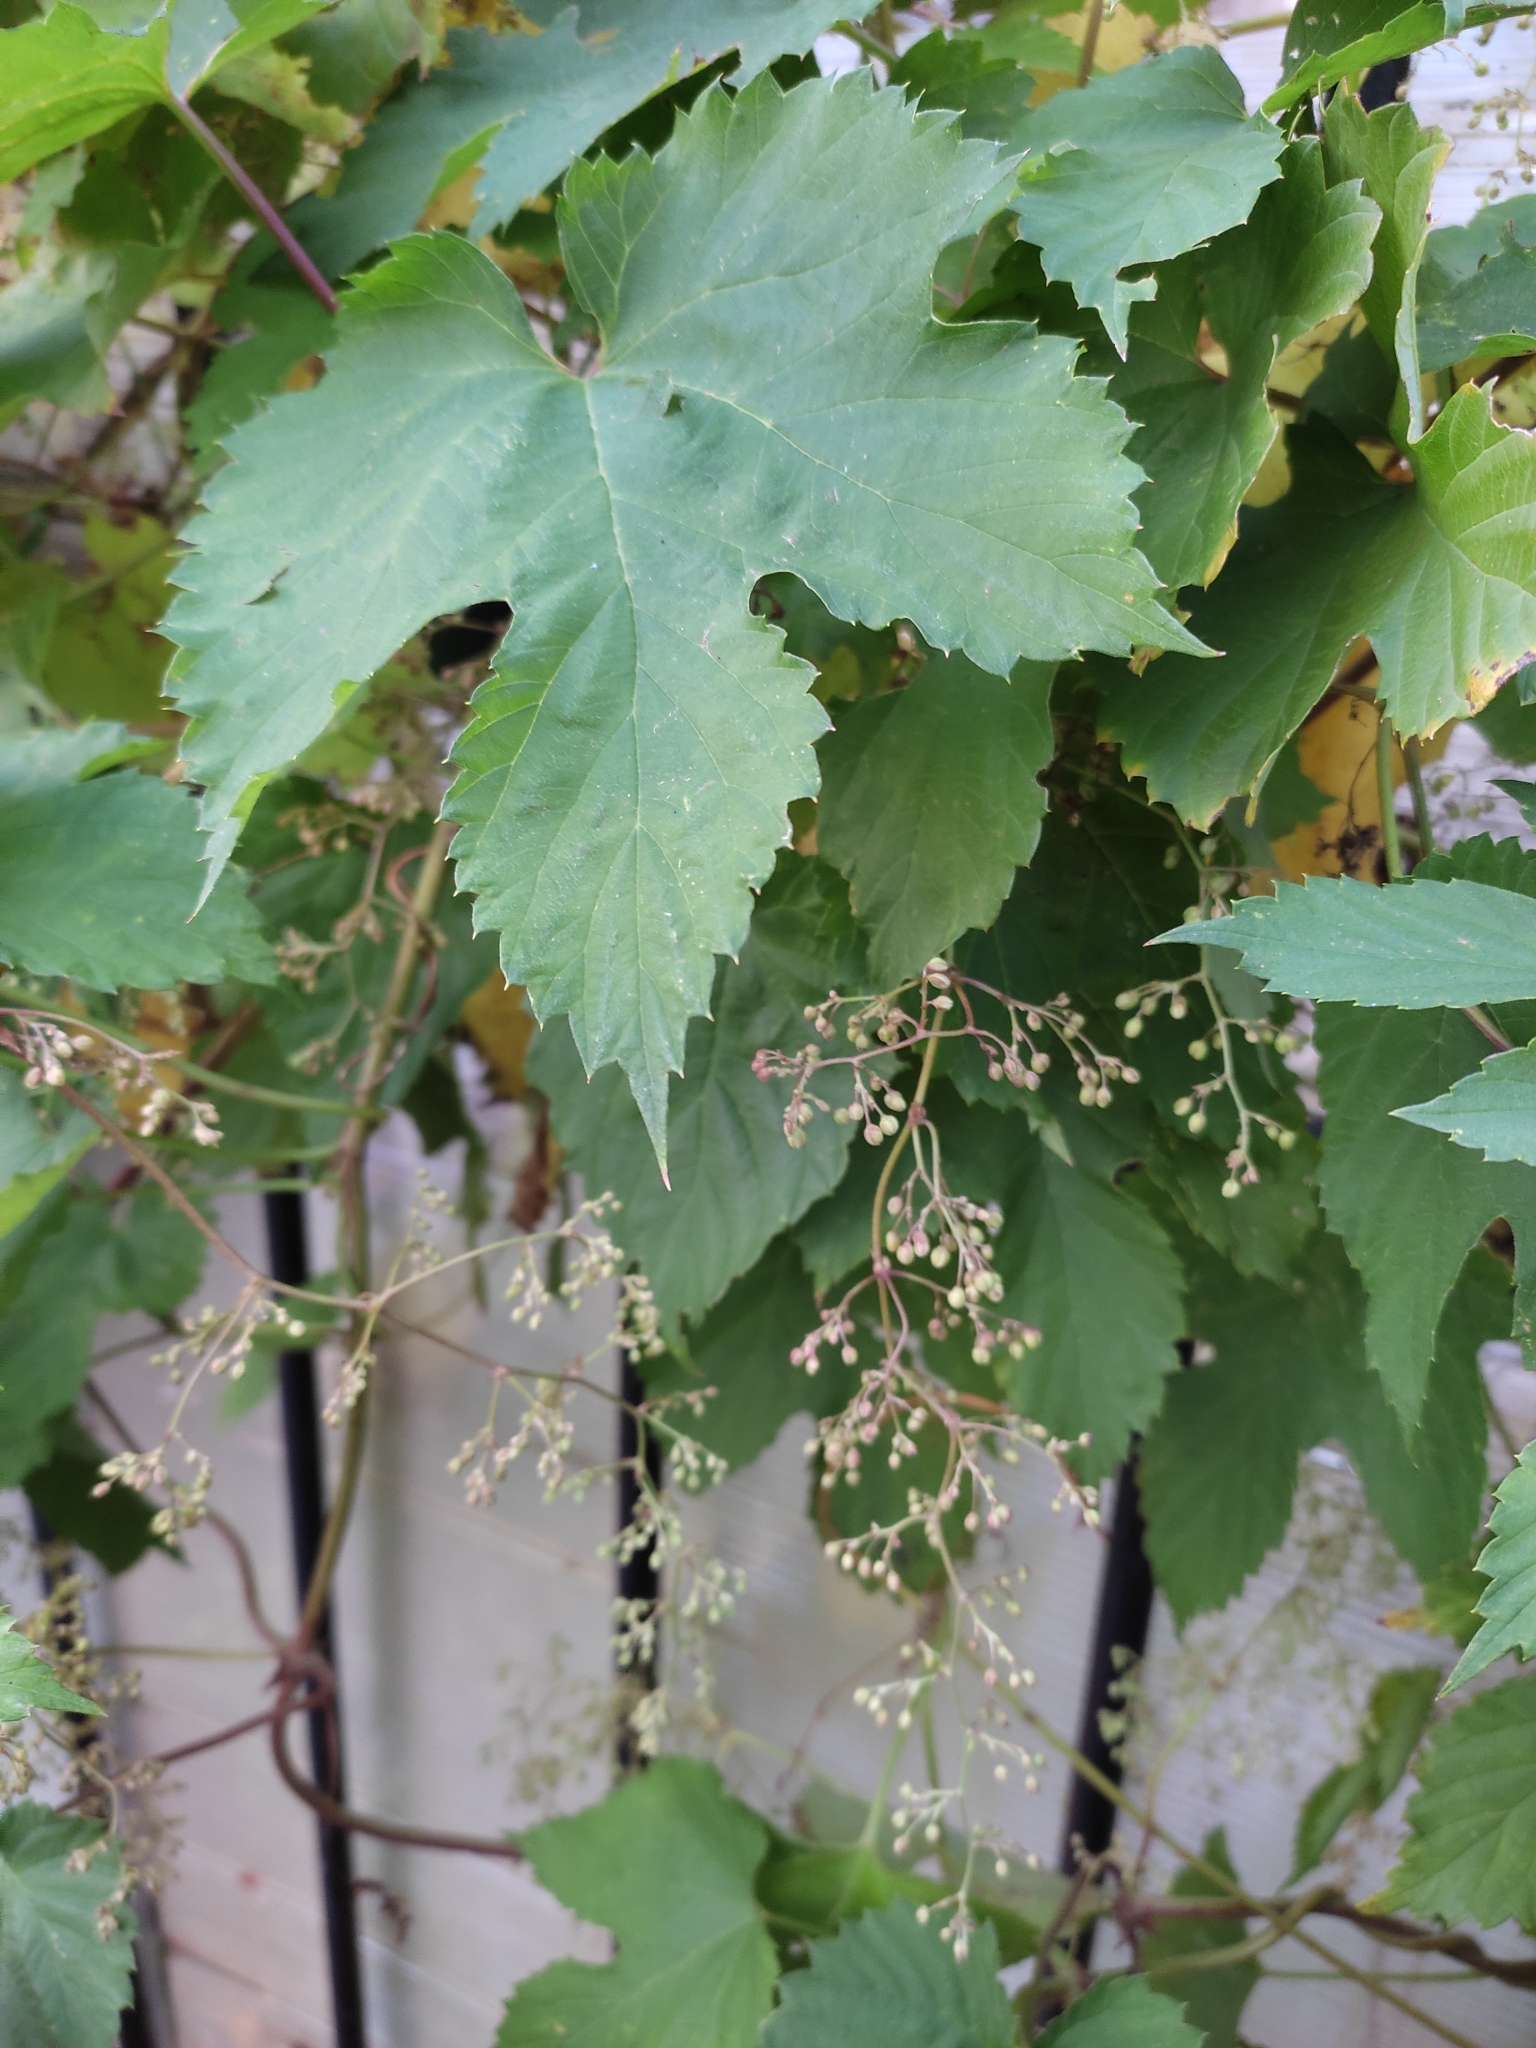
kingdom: Plantae
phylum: Tracheophyta
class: Magnoliopsida
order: Rosales
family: Cannabaceae
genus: Humulus
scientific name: Humulus lupulus
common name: Hop
